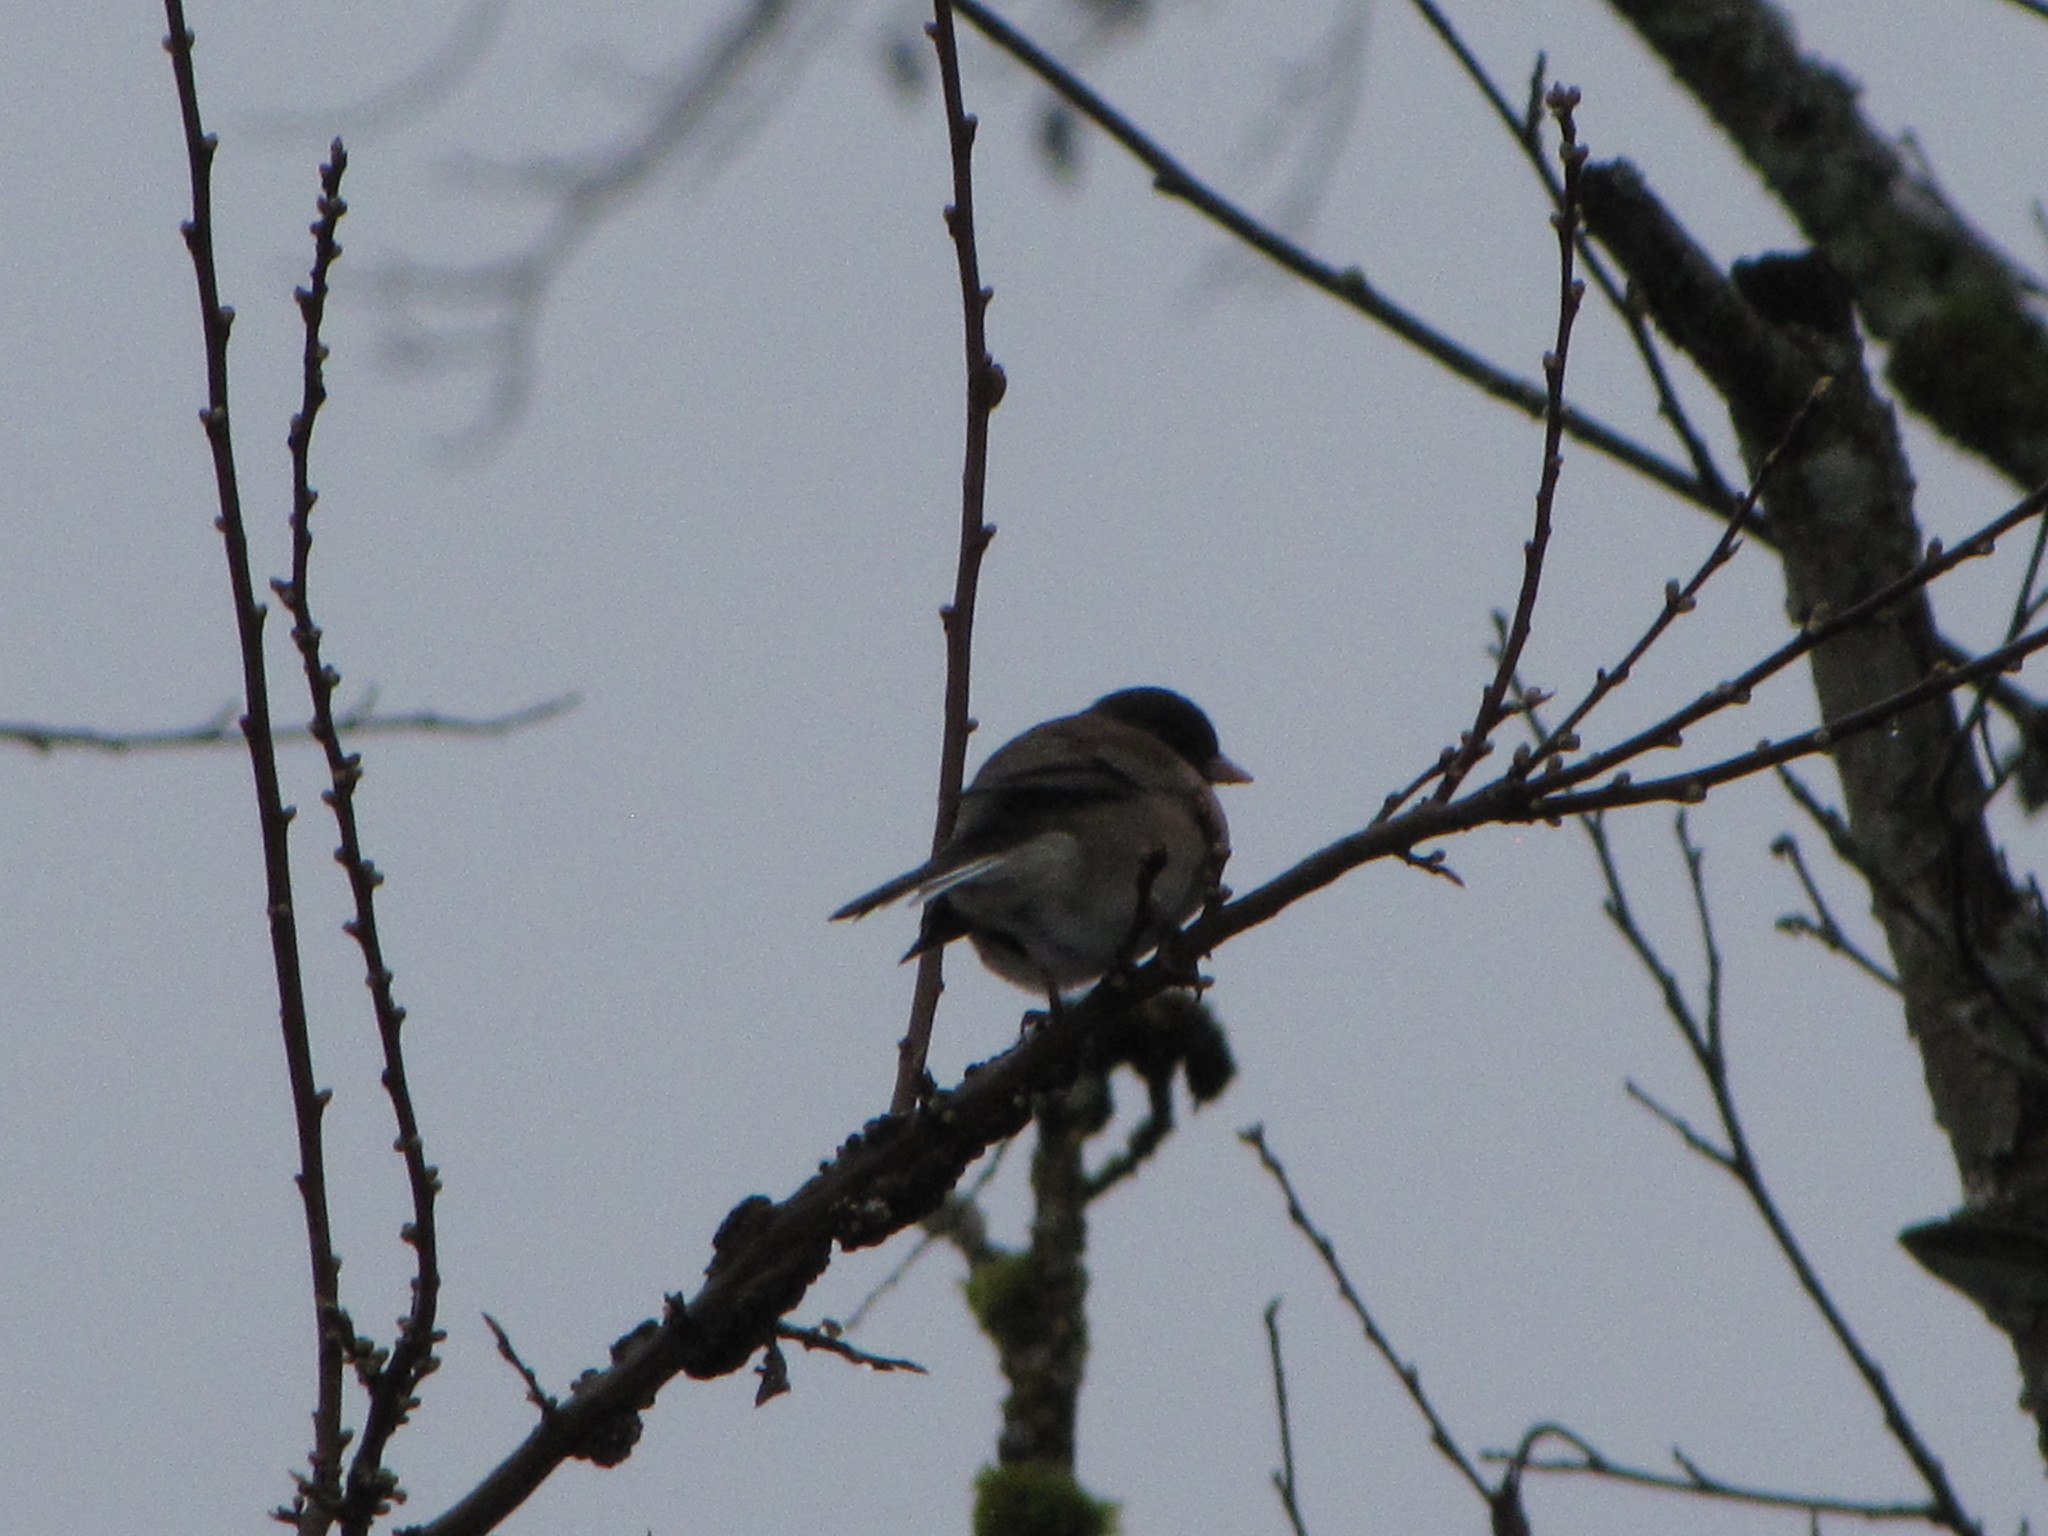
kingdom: Animalia
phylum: Chordata
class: Aves
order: Passeriformes
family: Passerellidae
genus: Junco
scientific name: Junco hyemalis
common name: Dark-eyed junco
